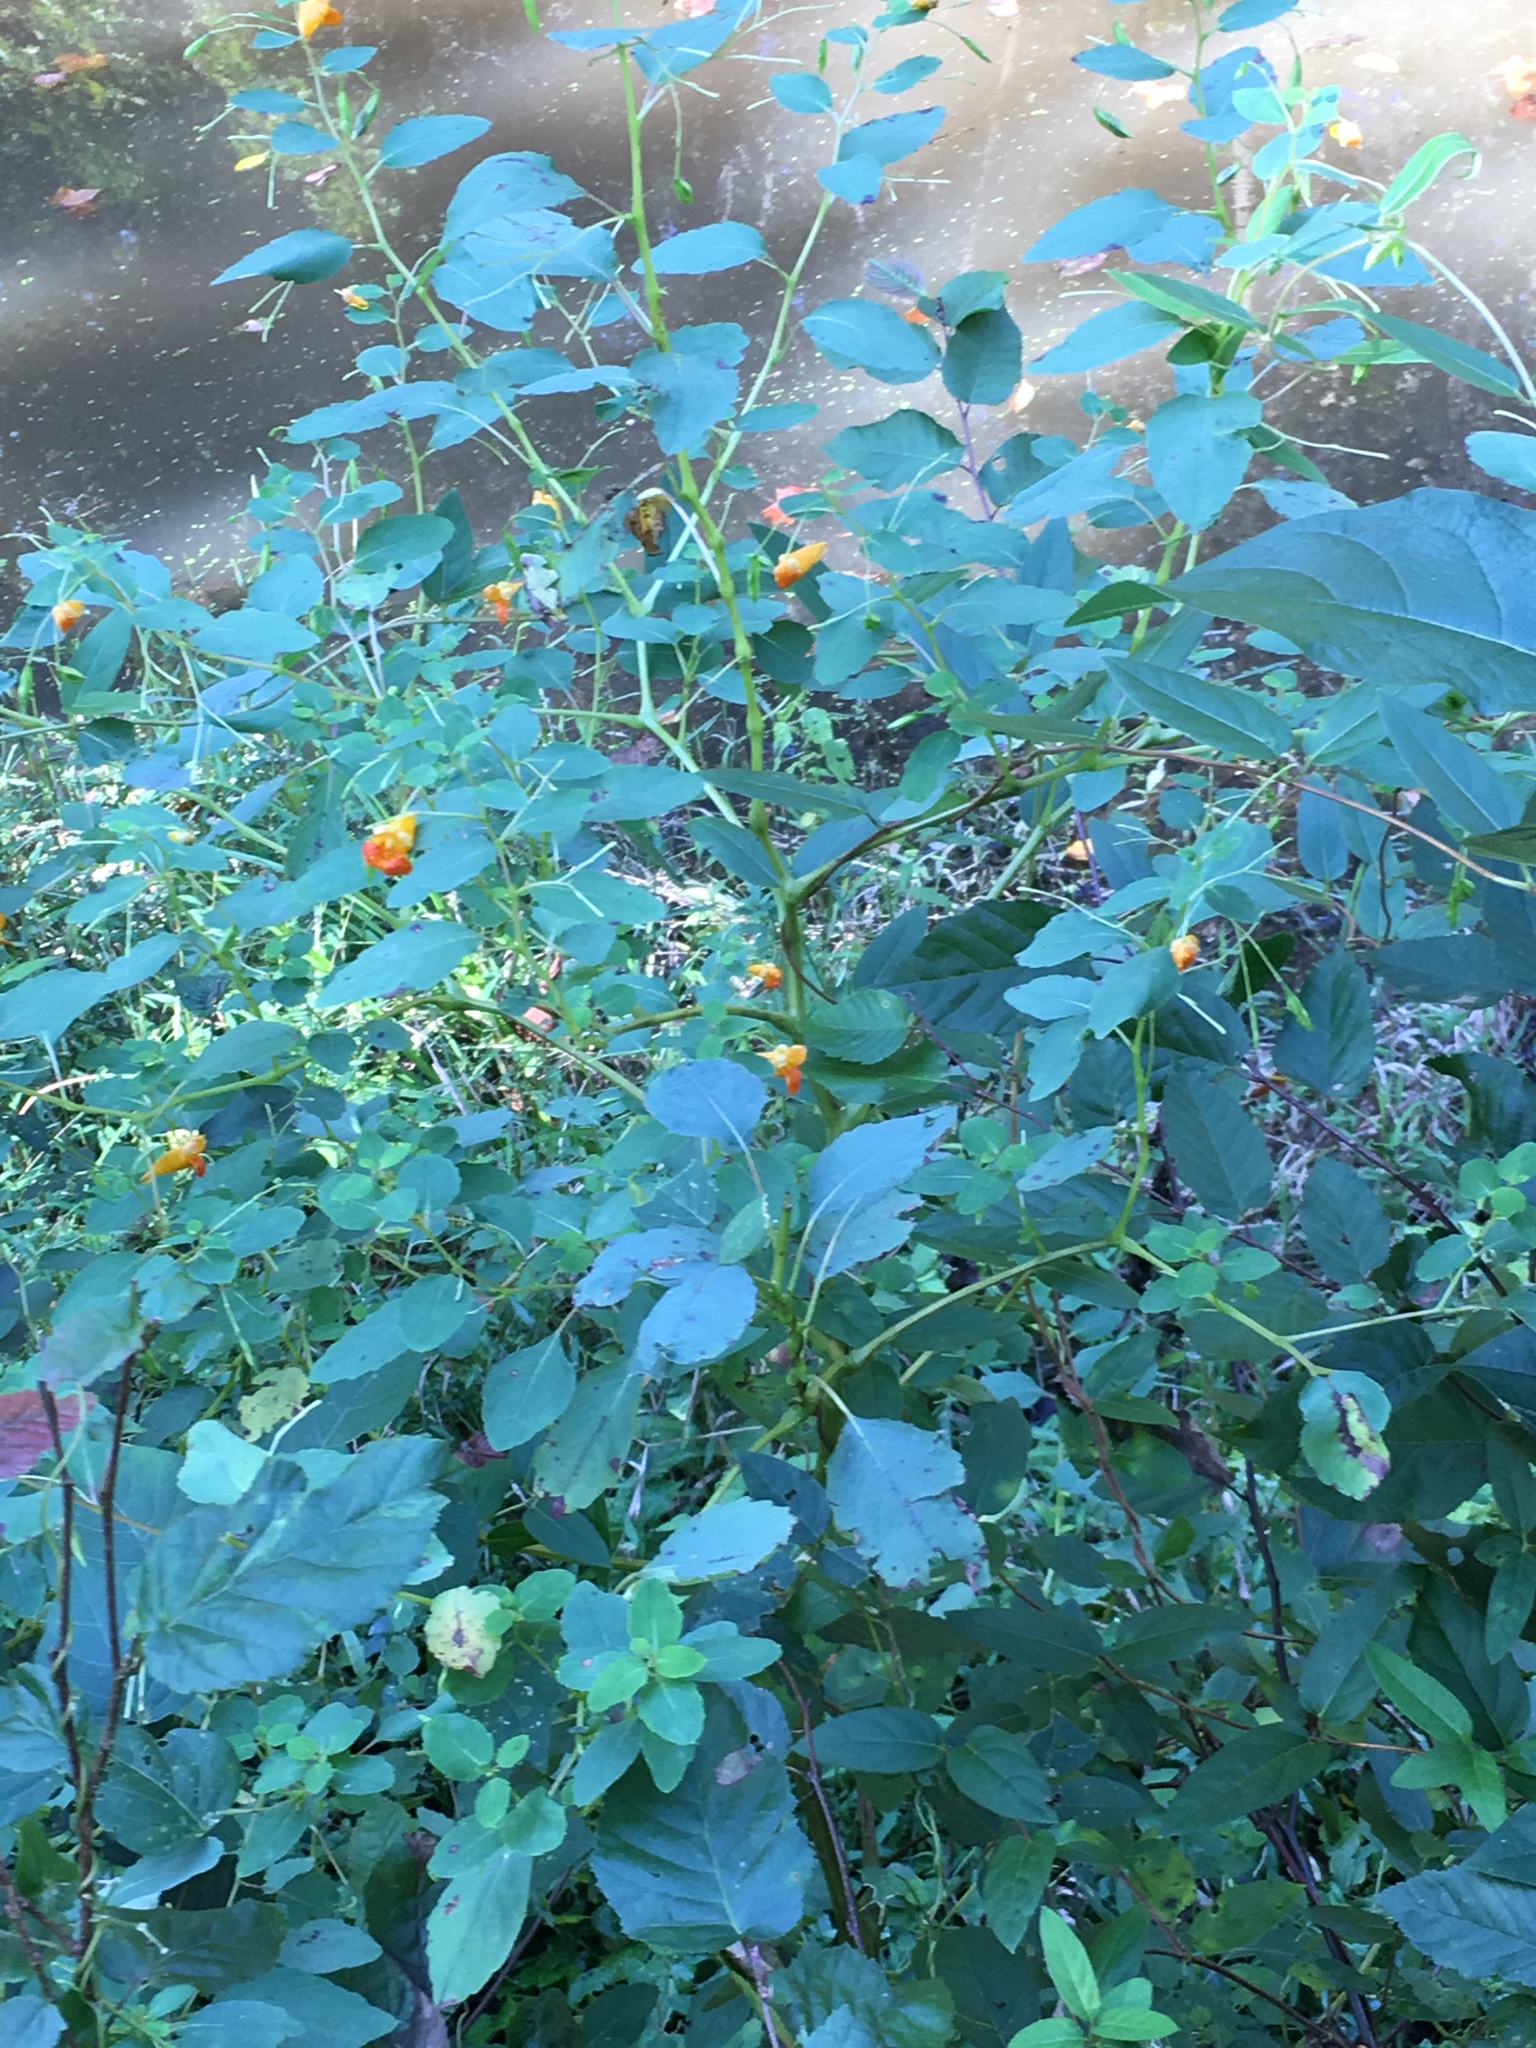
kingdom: Plantae
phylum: Tracheophyta
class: Magnoliopsida
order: Ericales
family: Balsaminaceae
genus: Impatiens
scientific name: Impatiens capensis
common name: Orange balsam
